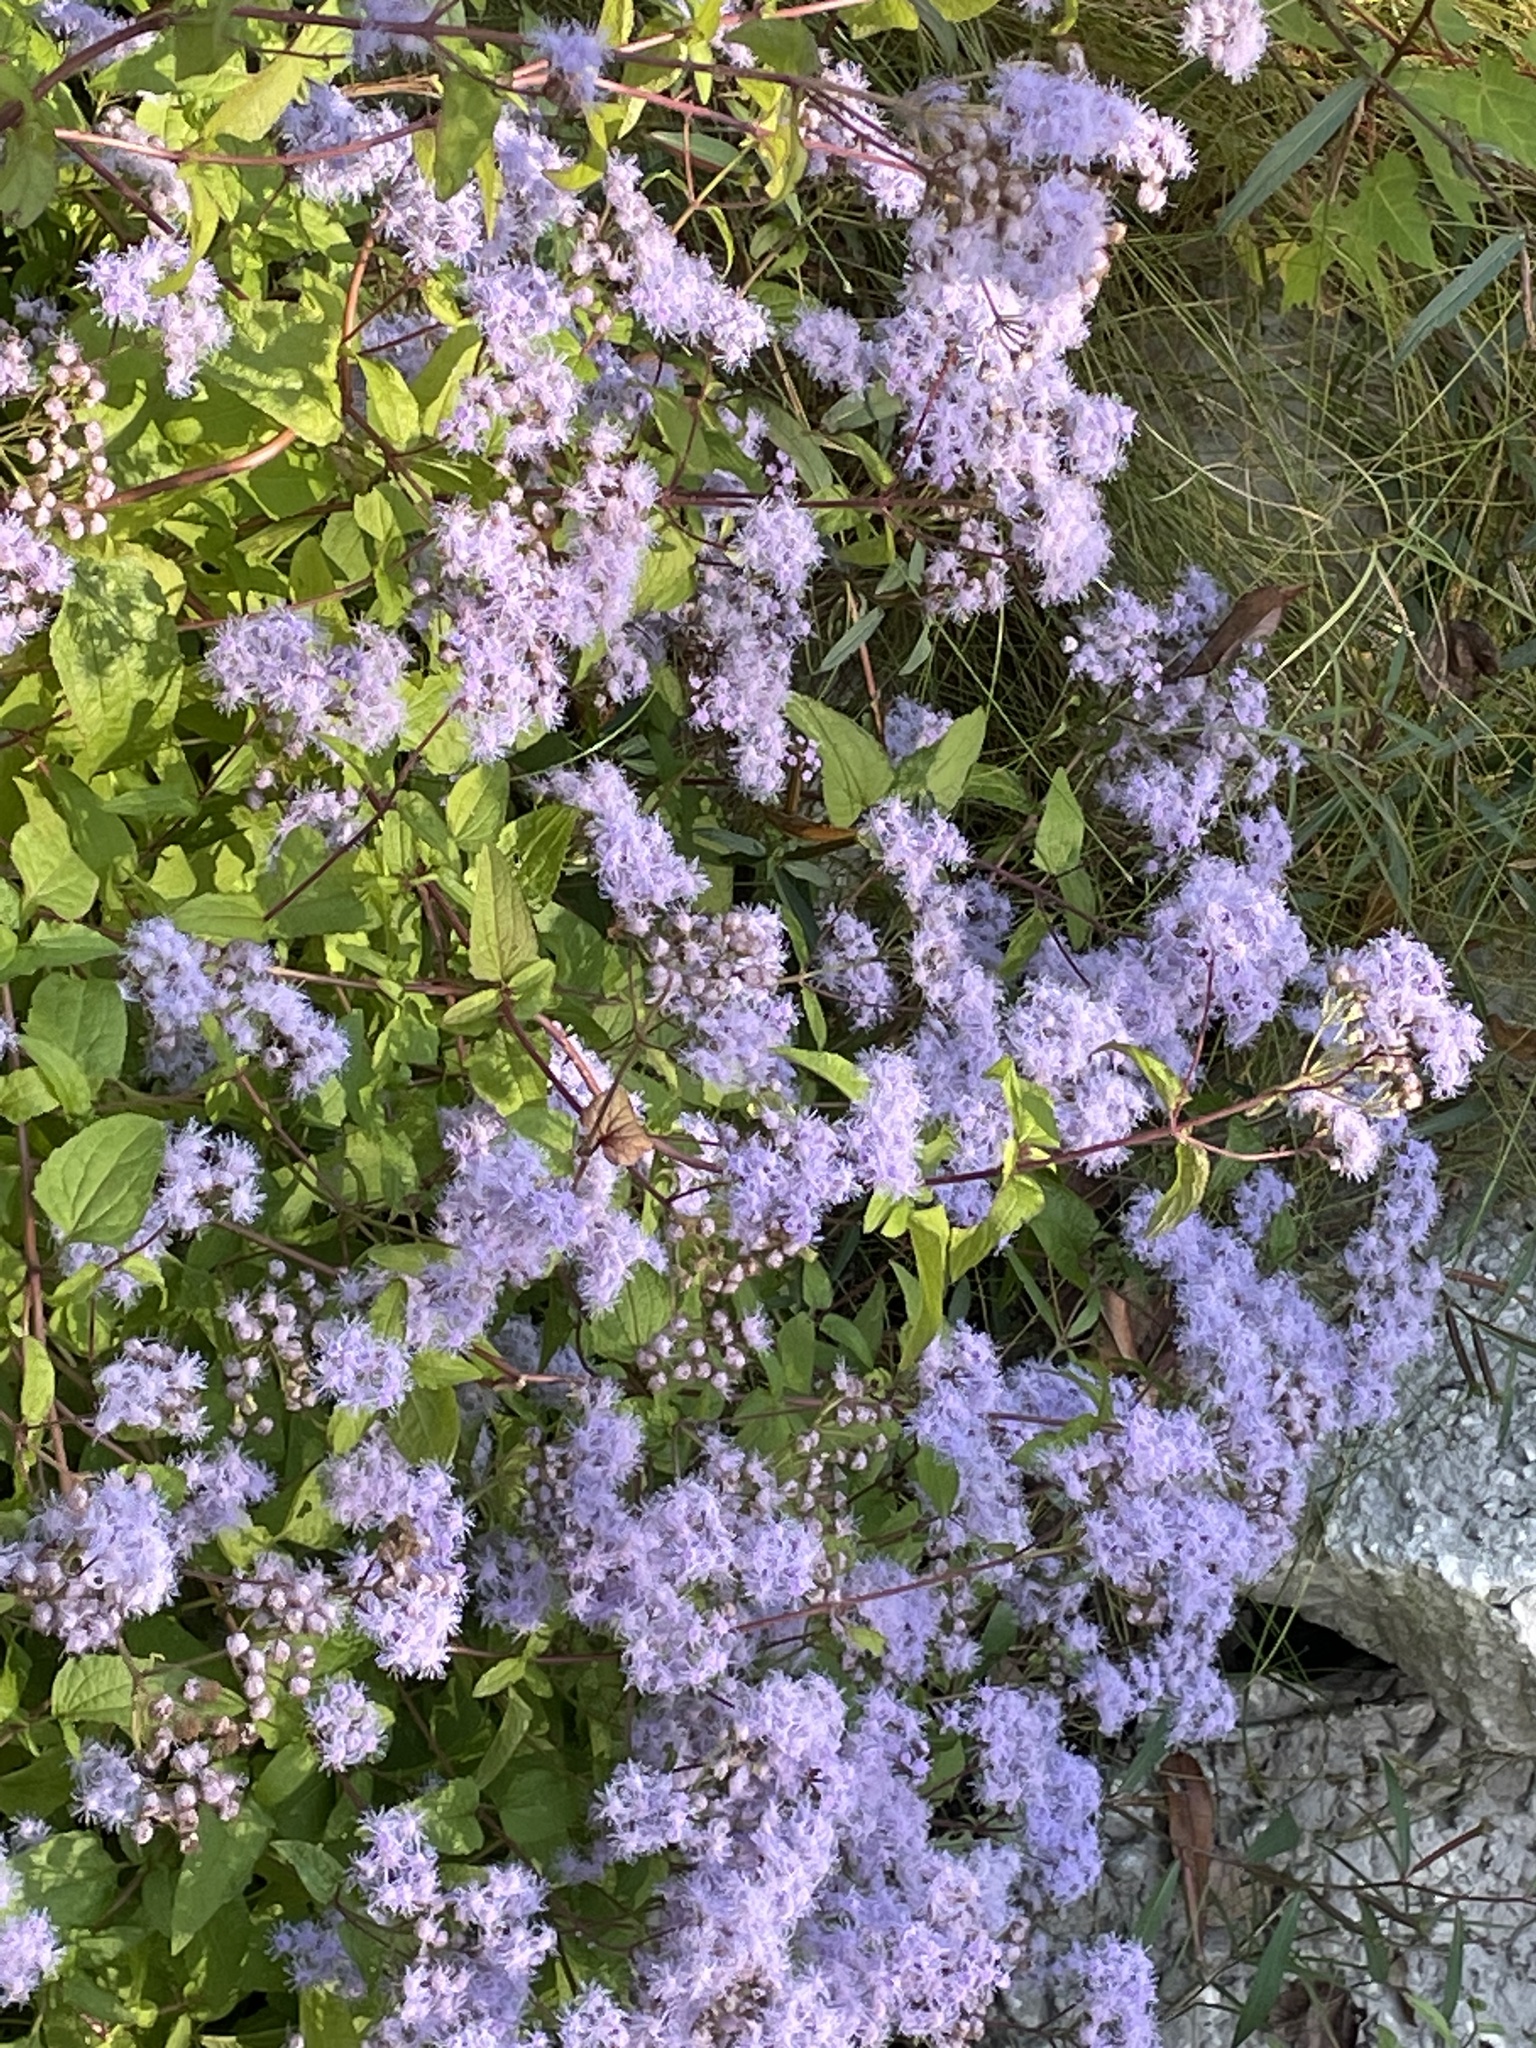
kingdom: Plantae
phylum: Tracheophyta
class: Magnoliopsida
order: Asterales
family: Asteraceae
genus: Conoclinium
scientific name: Conoclinium coelestinum
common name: Blue mistflower
